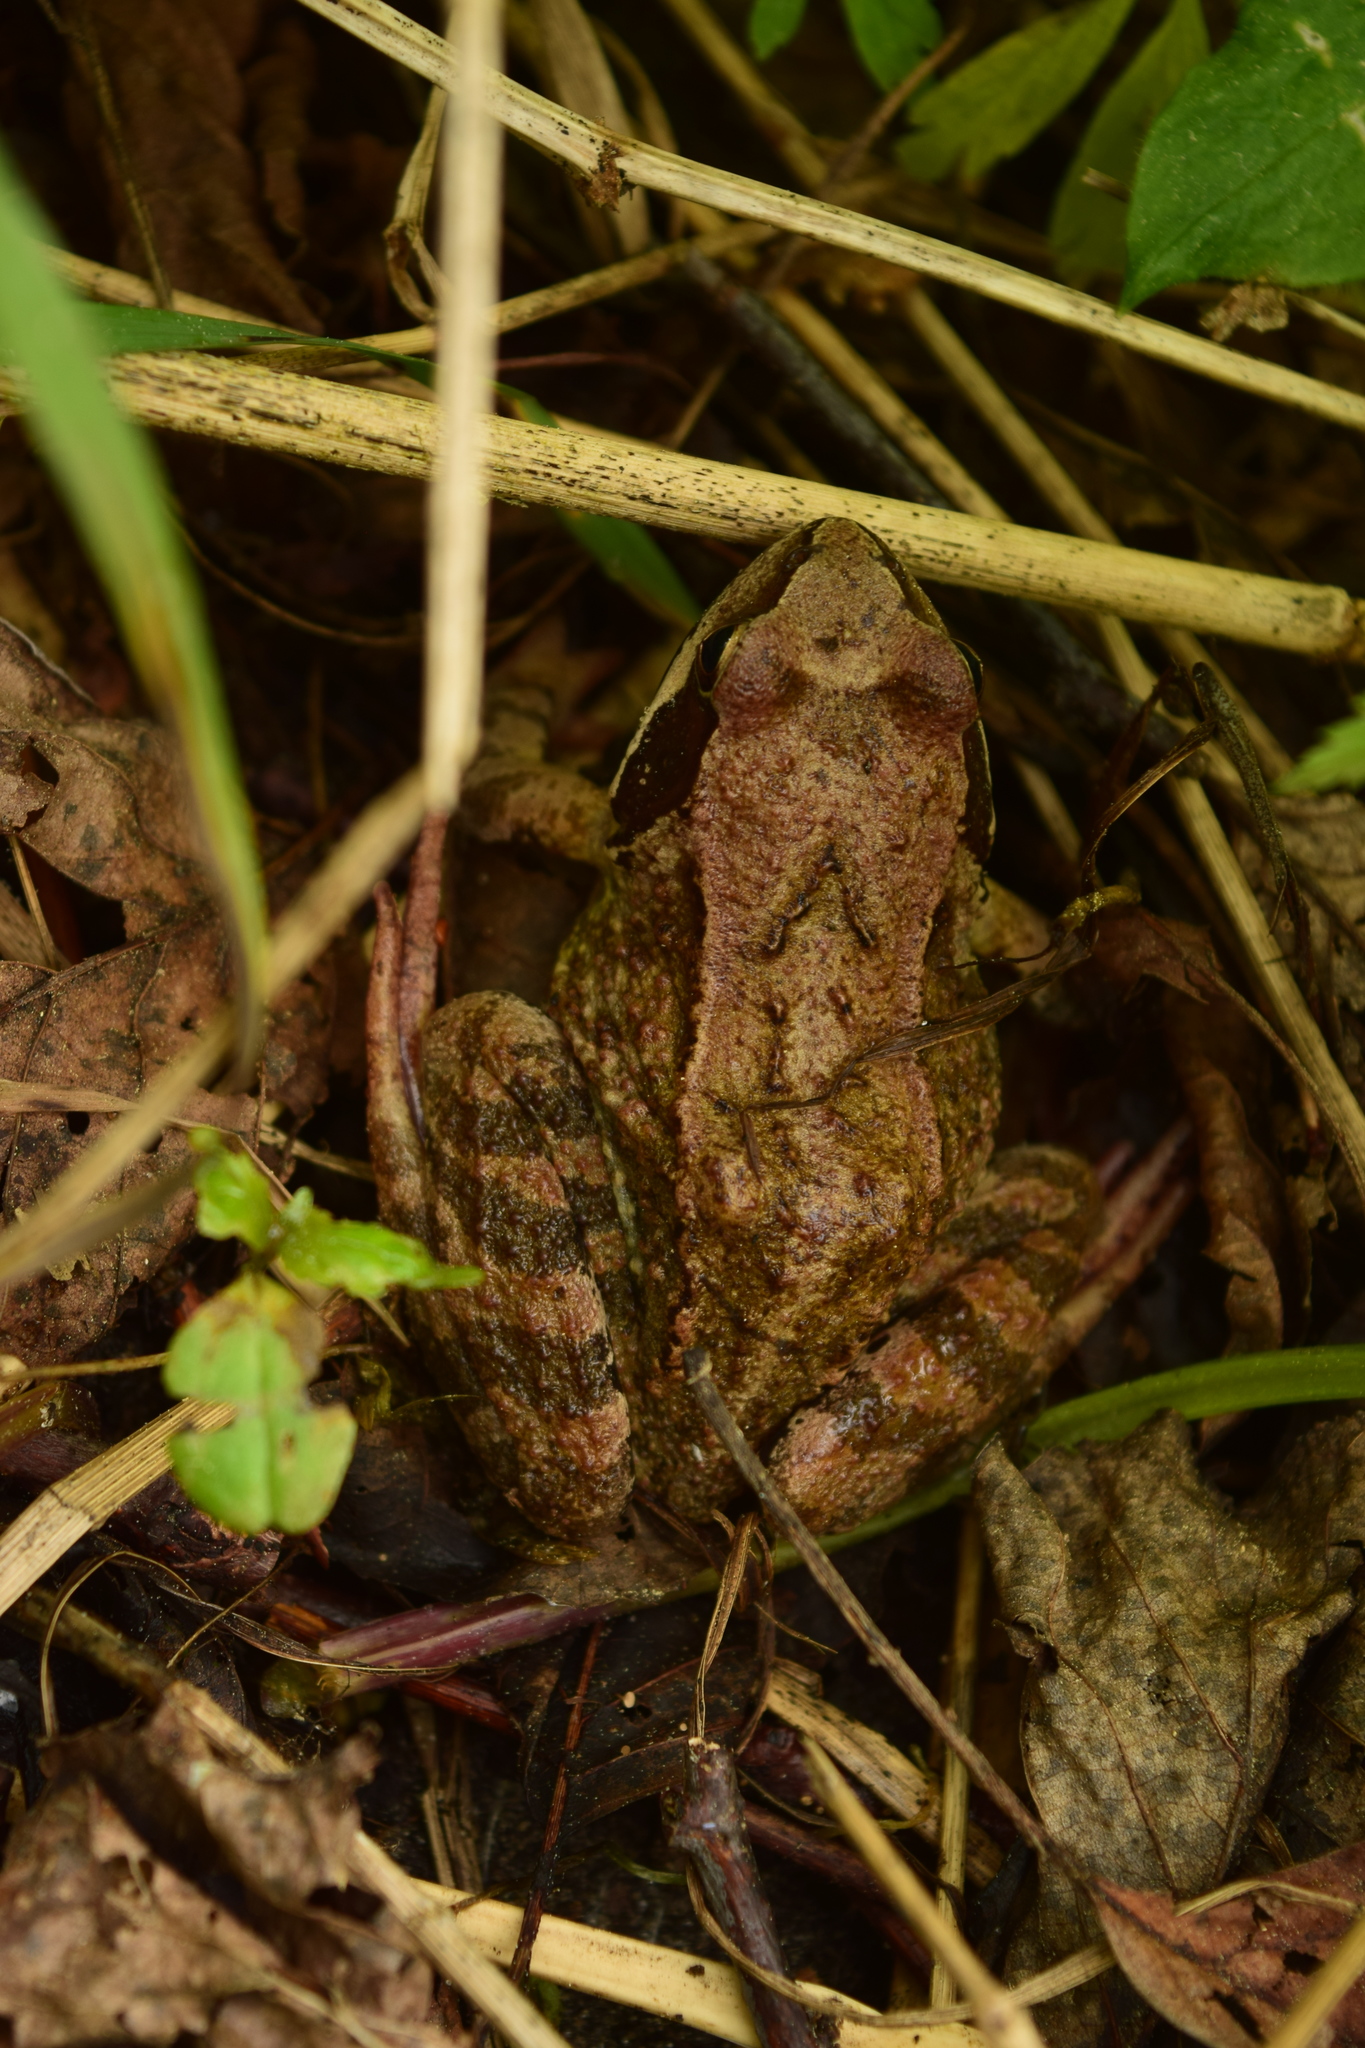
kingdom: Animalia
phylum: Chordata
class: Amphibia
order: Anura
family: Ranidae
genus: Rana
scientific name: Rana temporaria
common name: Common frog
